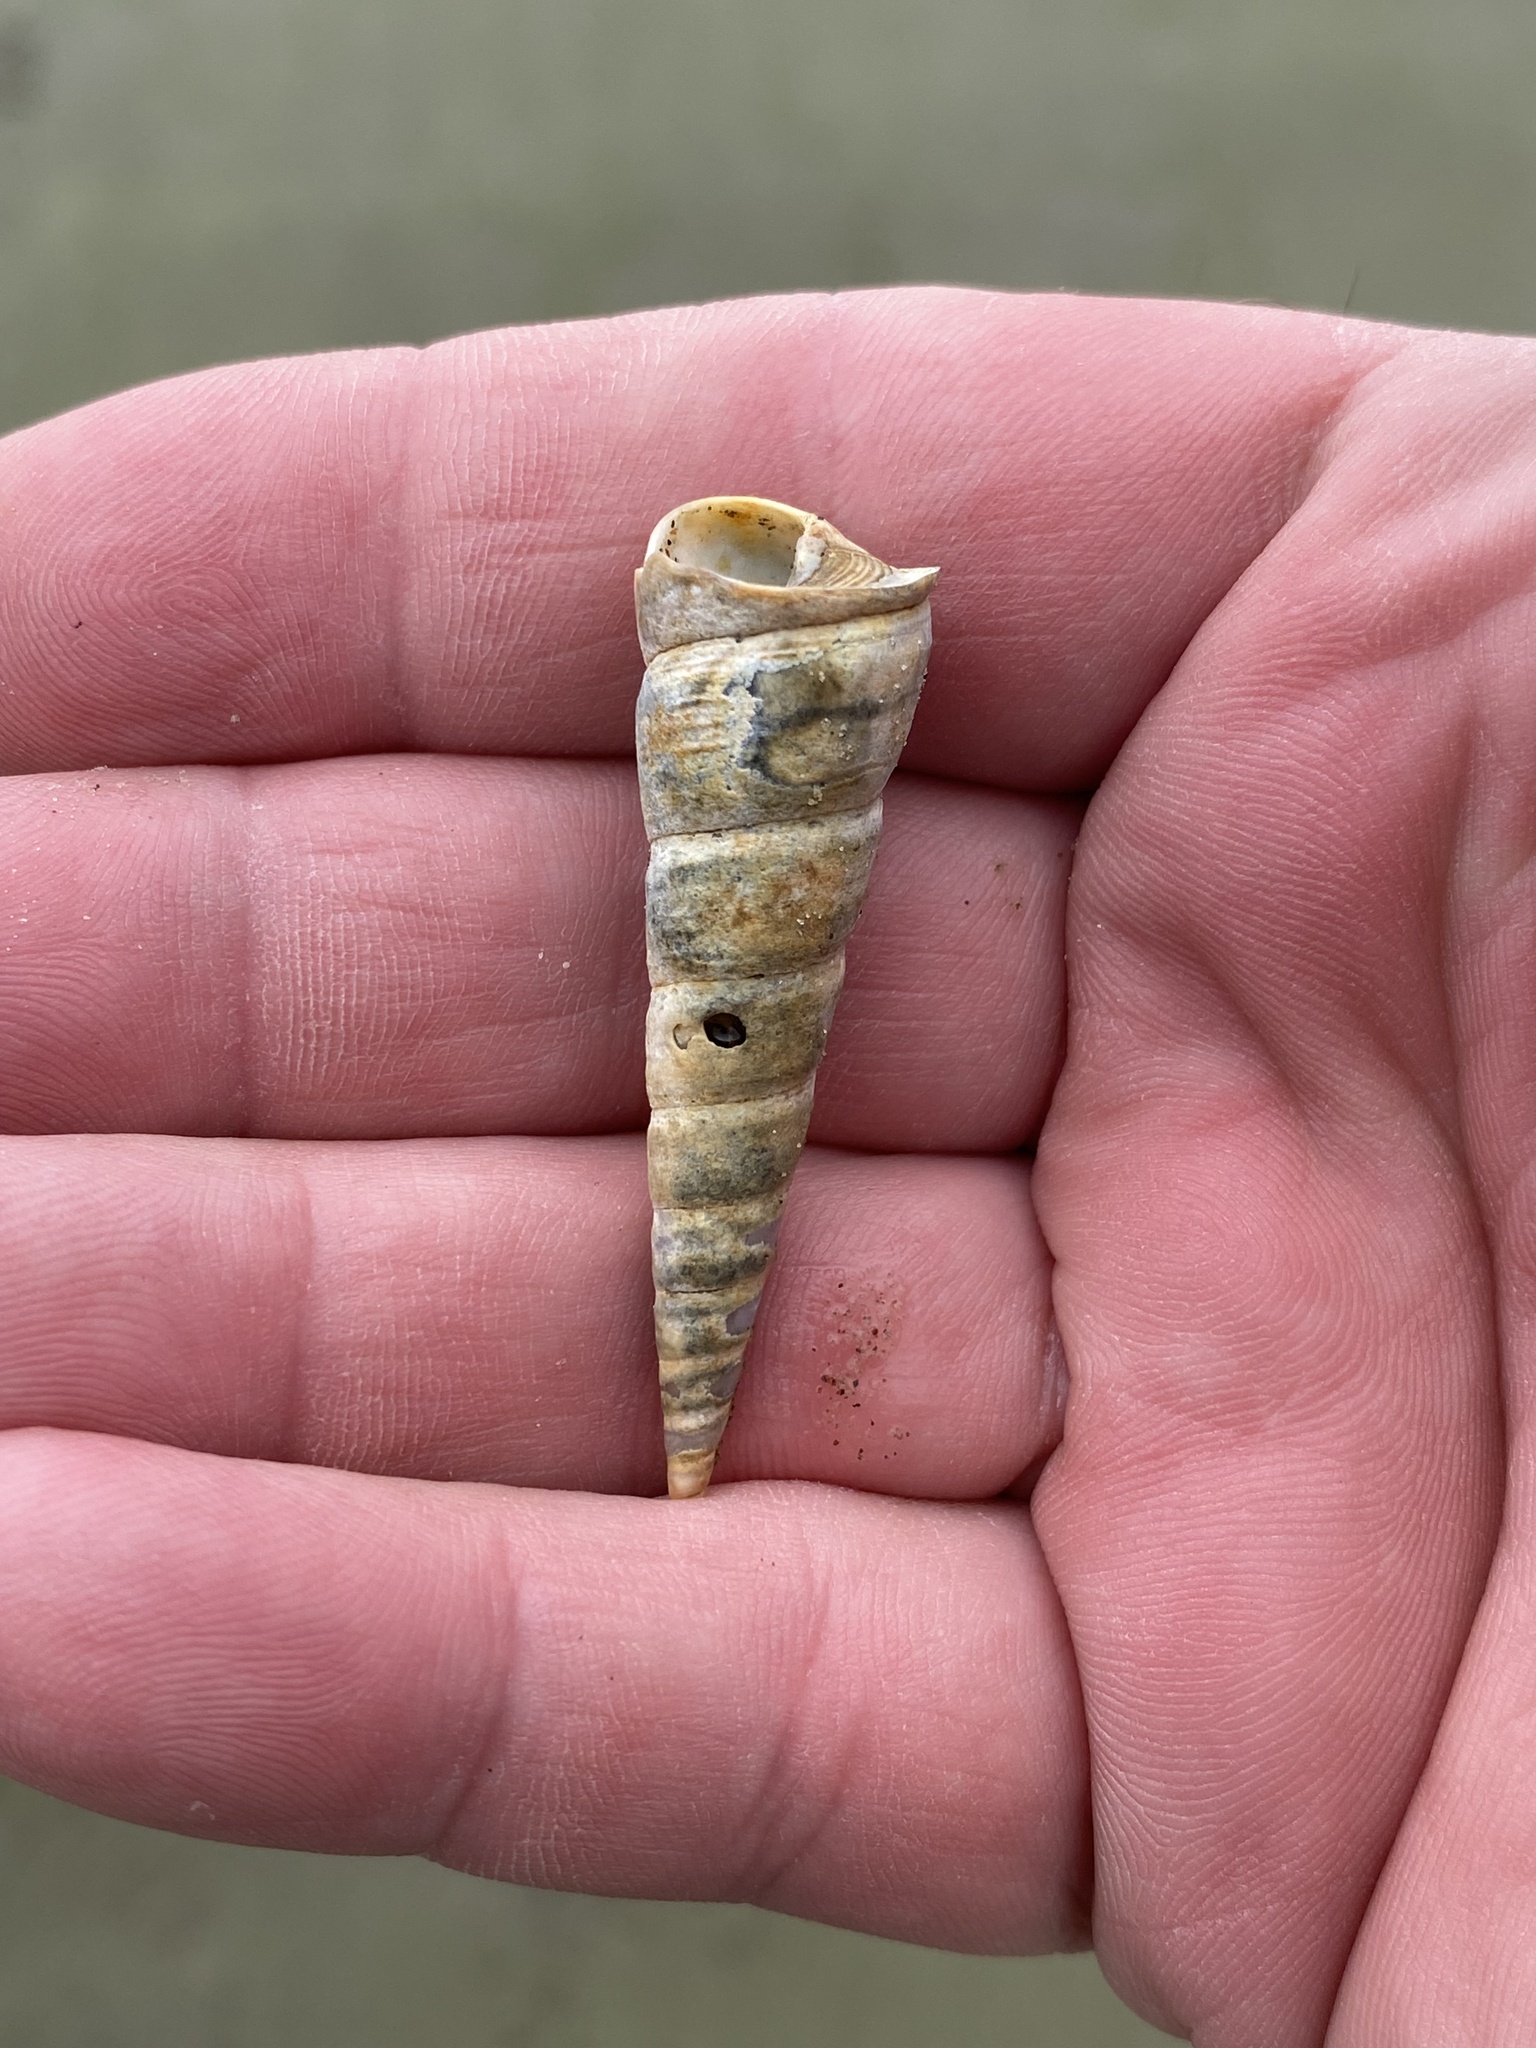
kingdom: Animalia
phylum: Mollusca
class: Gastropoda
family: Turritellidae
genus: Maoricolpus
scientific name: Maoricolpus roseus
